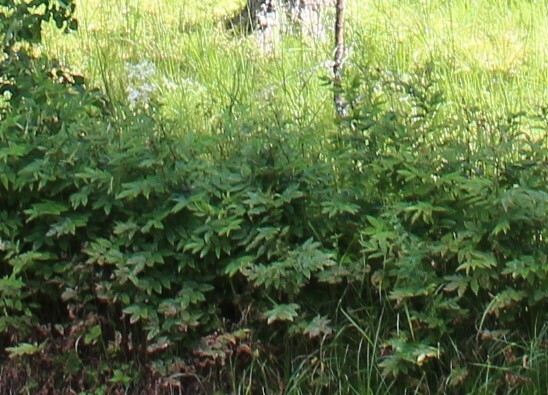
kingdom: Plantae
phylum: Tracheophyta
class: Magnoliopsida
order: Rosales
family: Rosaceae
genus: Filipendula
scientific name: Filipendula ulmaria
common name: Meadowsweet
